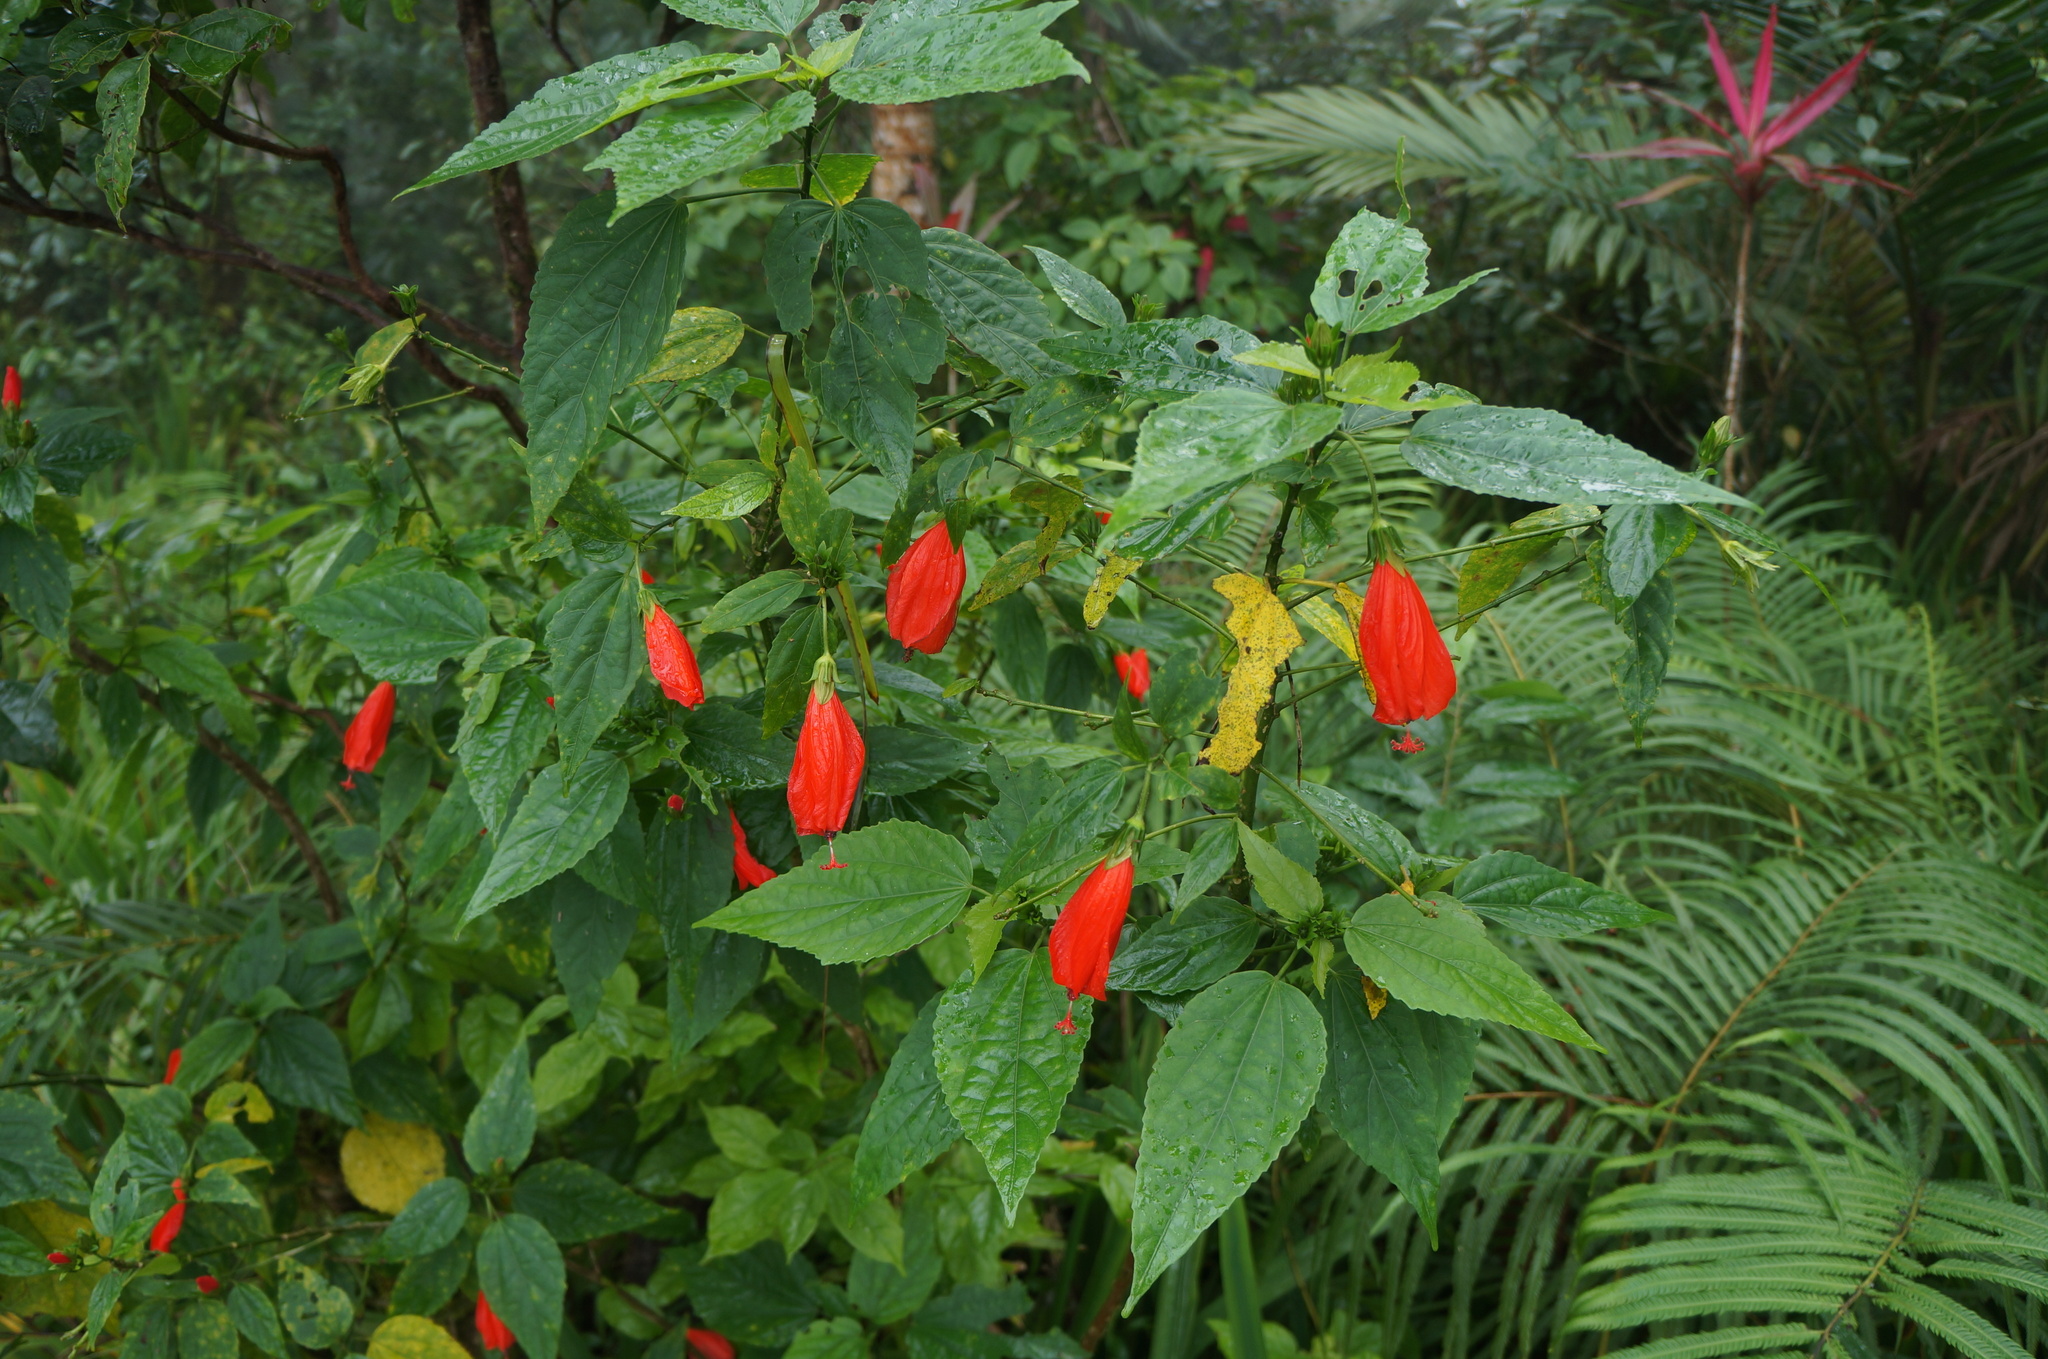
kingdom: Plantae
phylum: Tracheophyta
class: Magnoliopsida
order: Malvales
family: Malvaceae
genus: Malvaviscus
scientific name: Malvaviscus penduliflorus
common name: Mazapan
